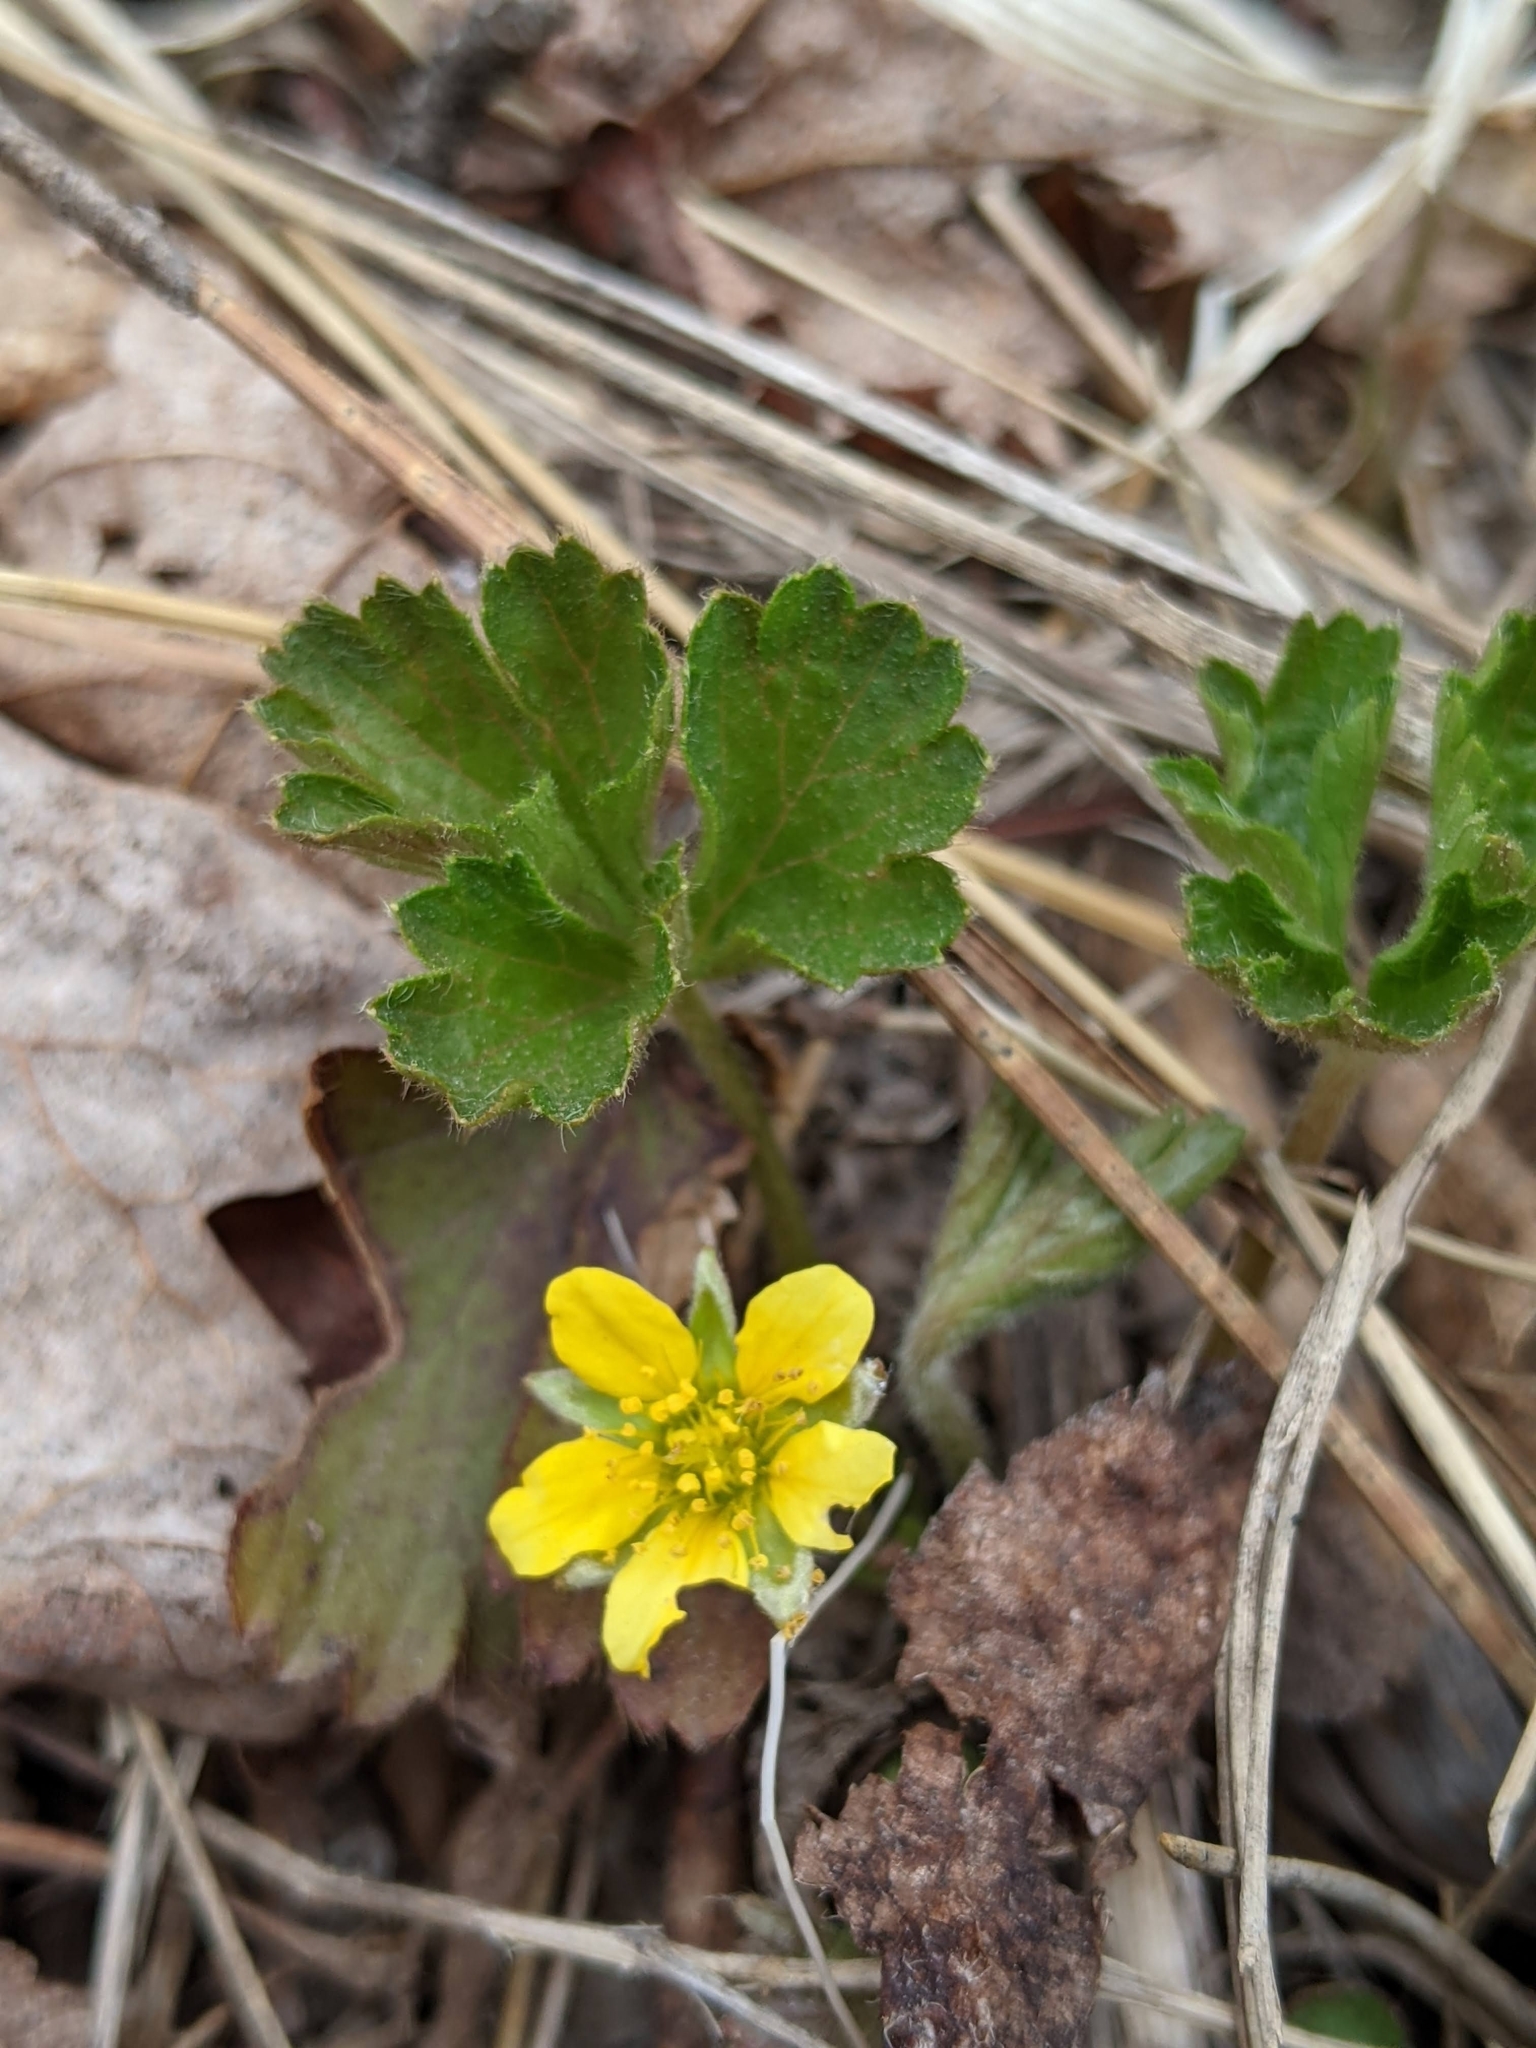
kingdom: Plantae
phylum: Tracheophyta
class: Magnoliopsida
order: Rosales
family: Rosaceae
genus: Geum
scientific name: Geum fragarioides
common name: Appalachian barren strawberry
